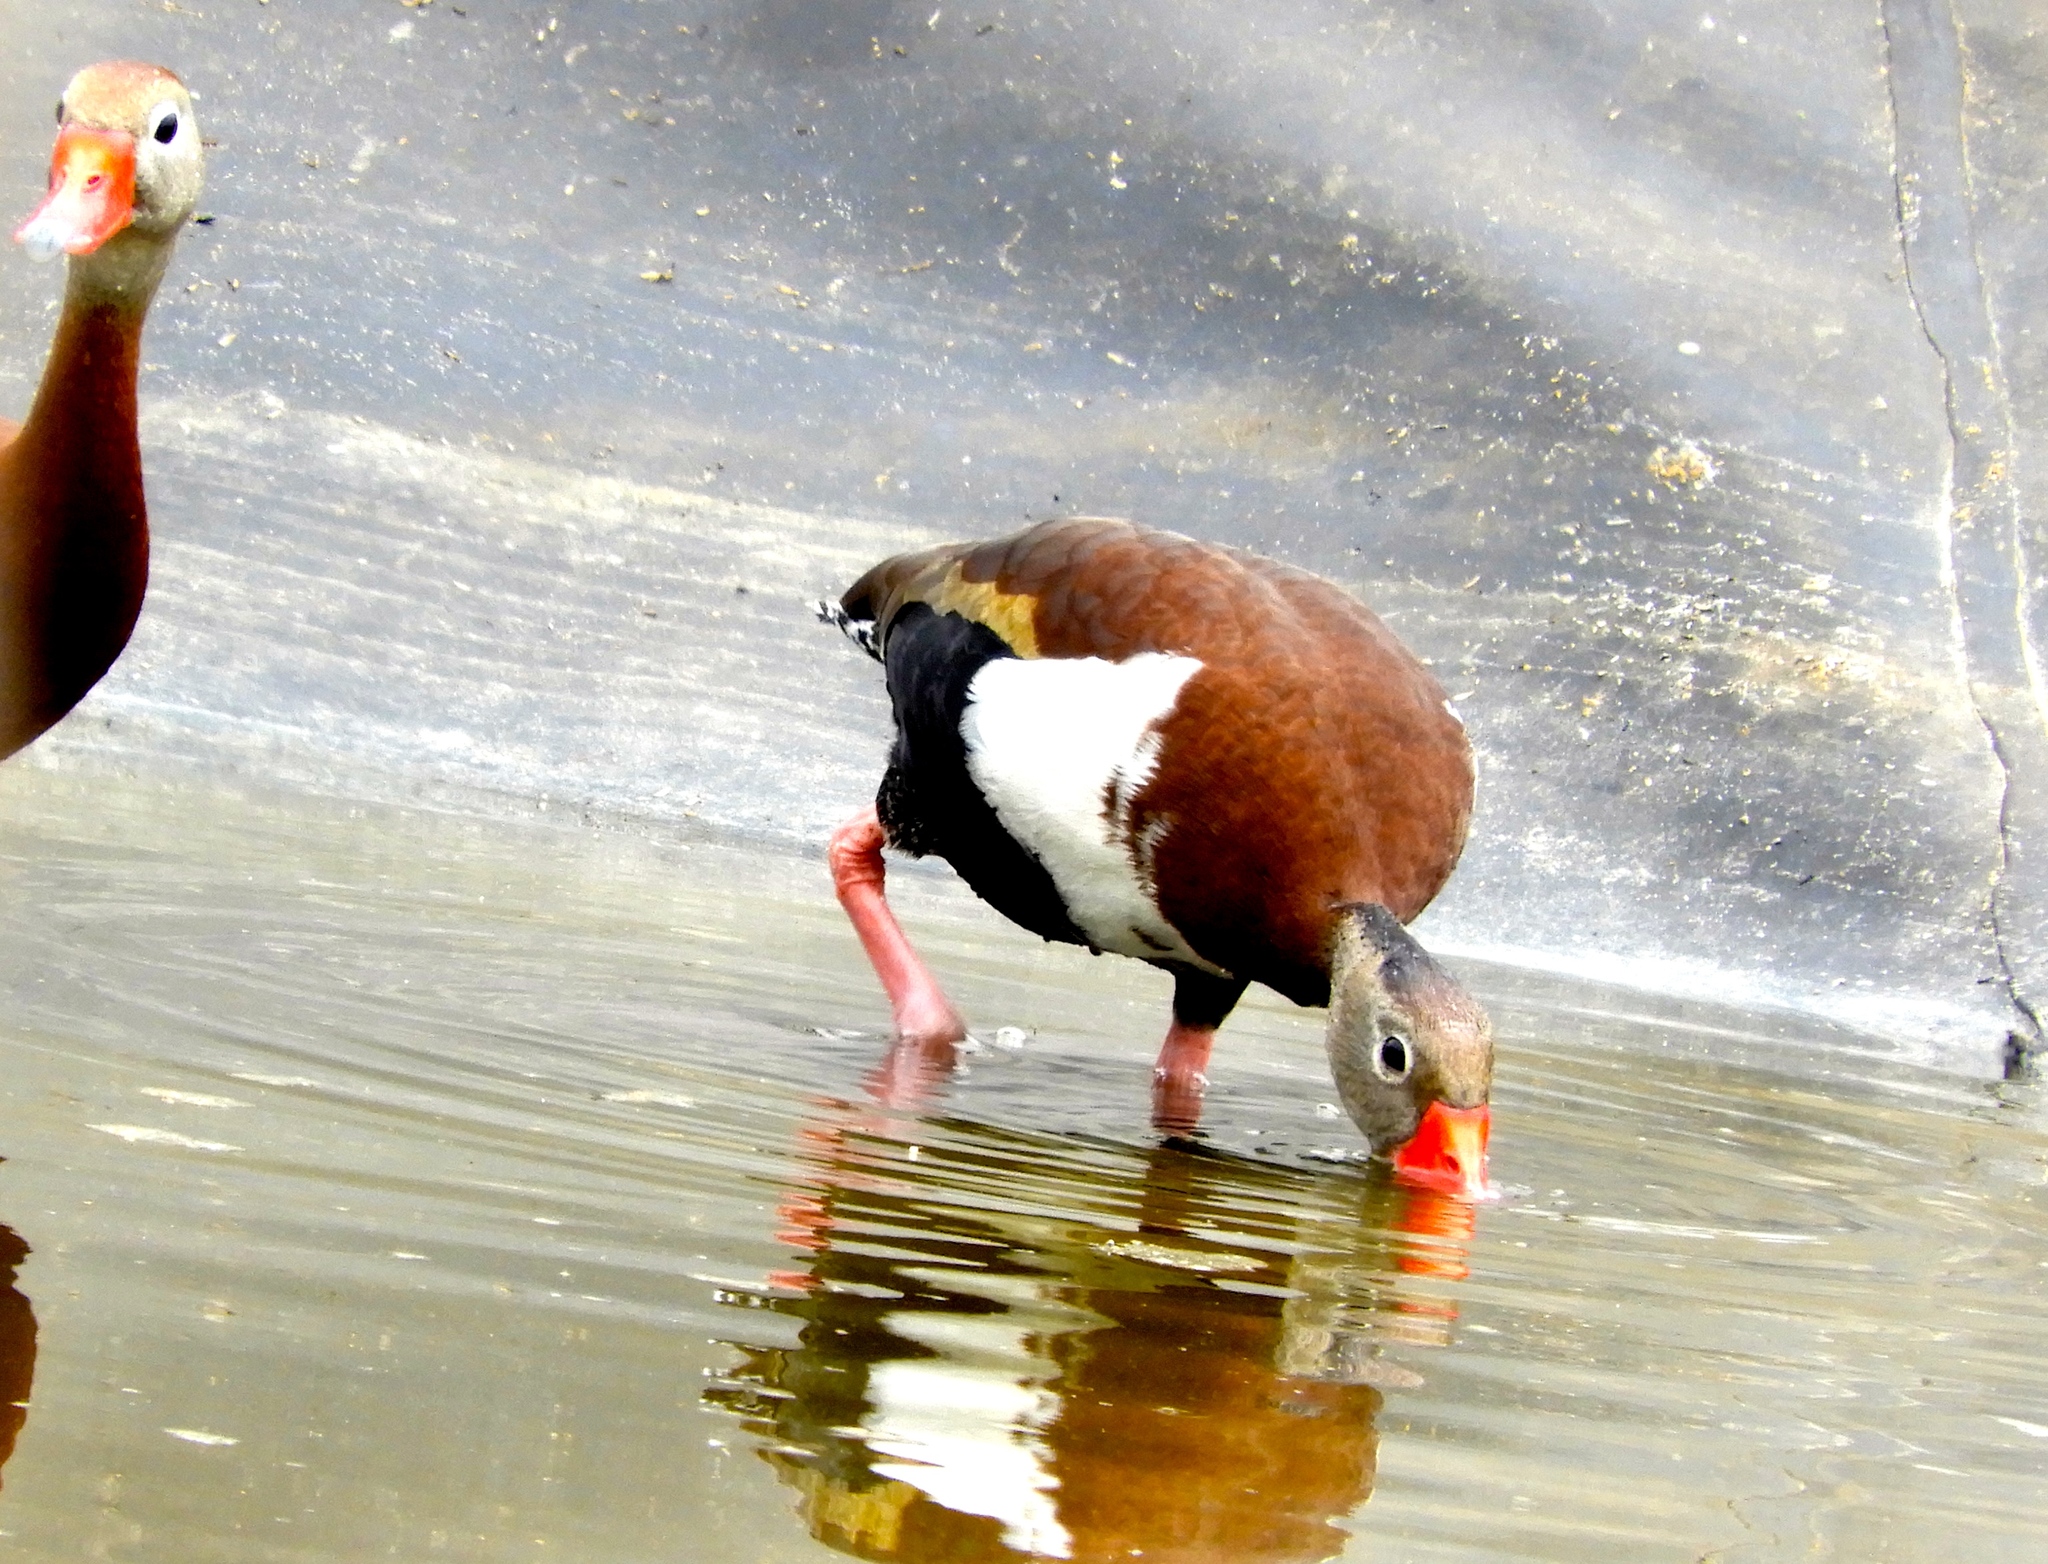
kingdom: Animalia
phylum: Chordata
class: Aves
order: Anseriformes
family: Anatidae
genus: Dendrocygna
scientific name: Dendrocygna autumnalis
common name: Black-bellied whistling duck
